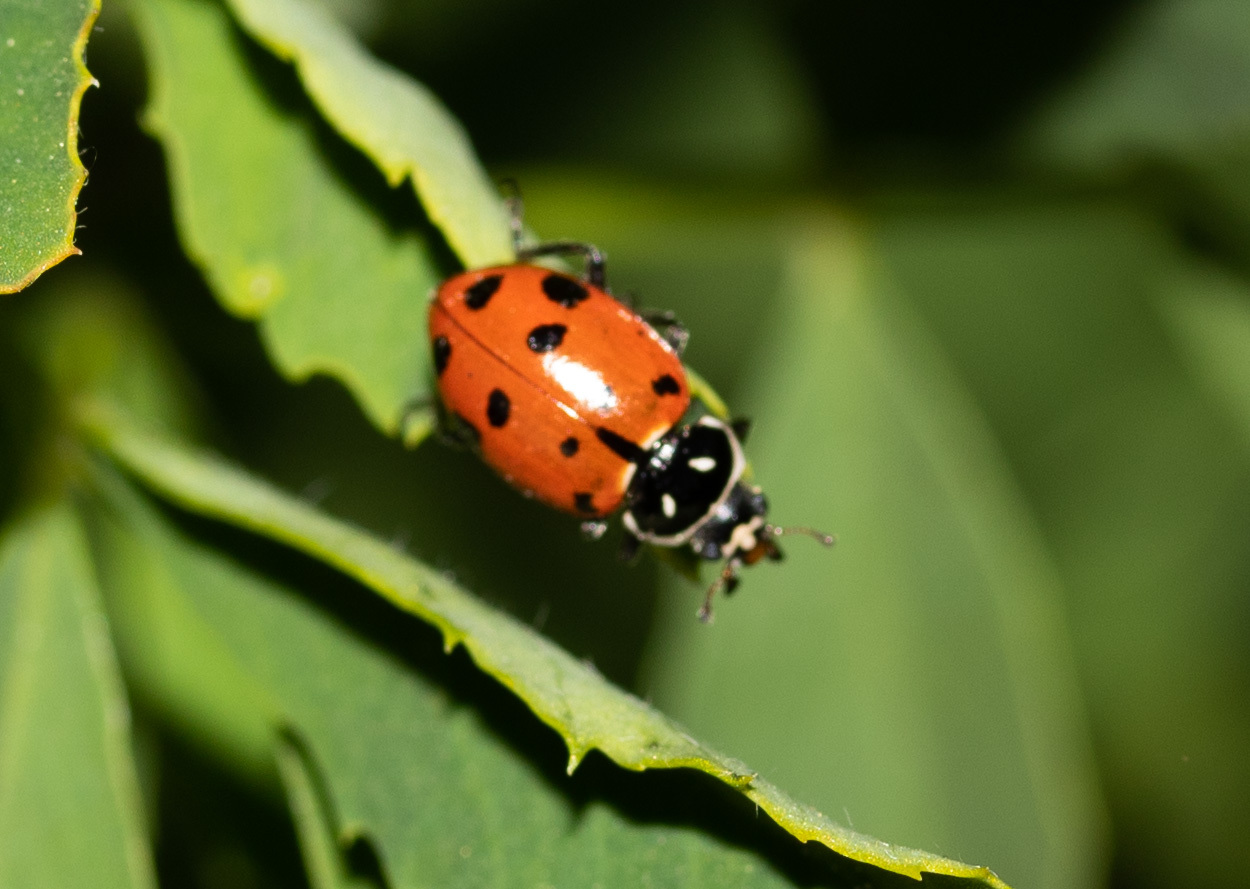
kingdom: Animalia
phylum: Arthropoda
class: Insecta
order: Coleoptera
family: Coccinellidae
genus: Hippodamia
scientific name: Hippodamia convergens
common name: Convergent lady beetle
